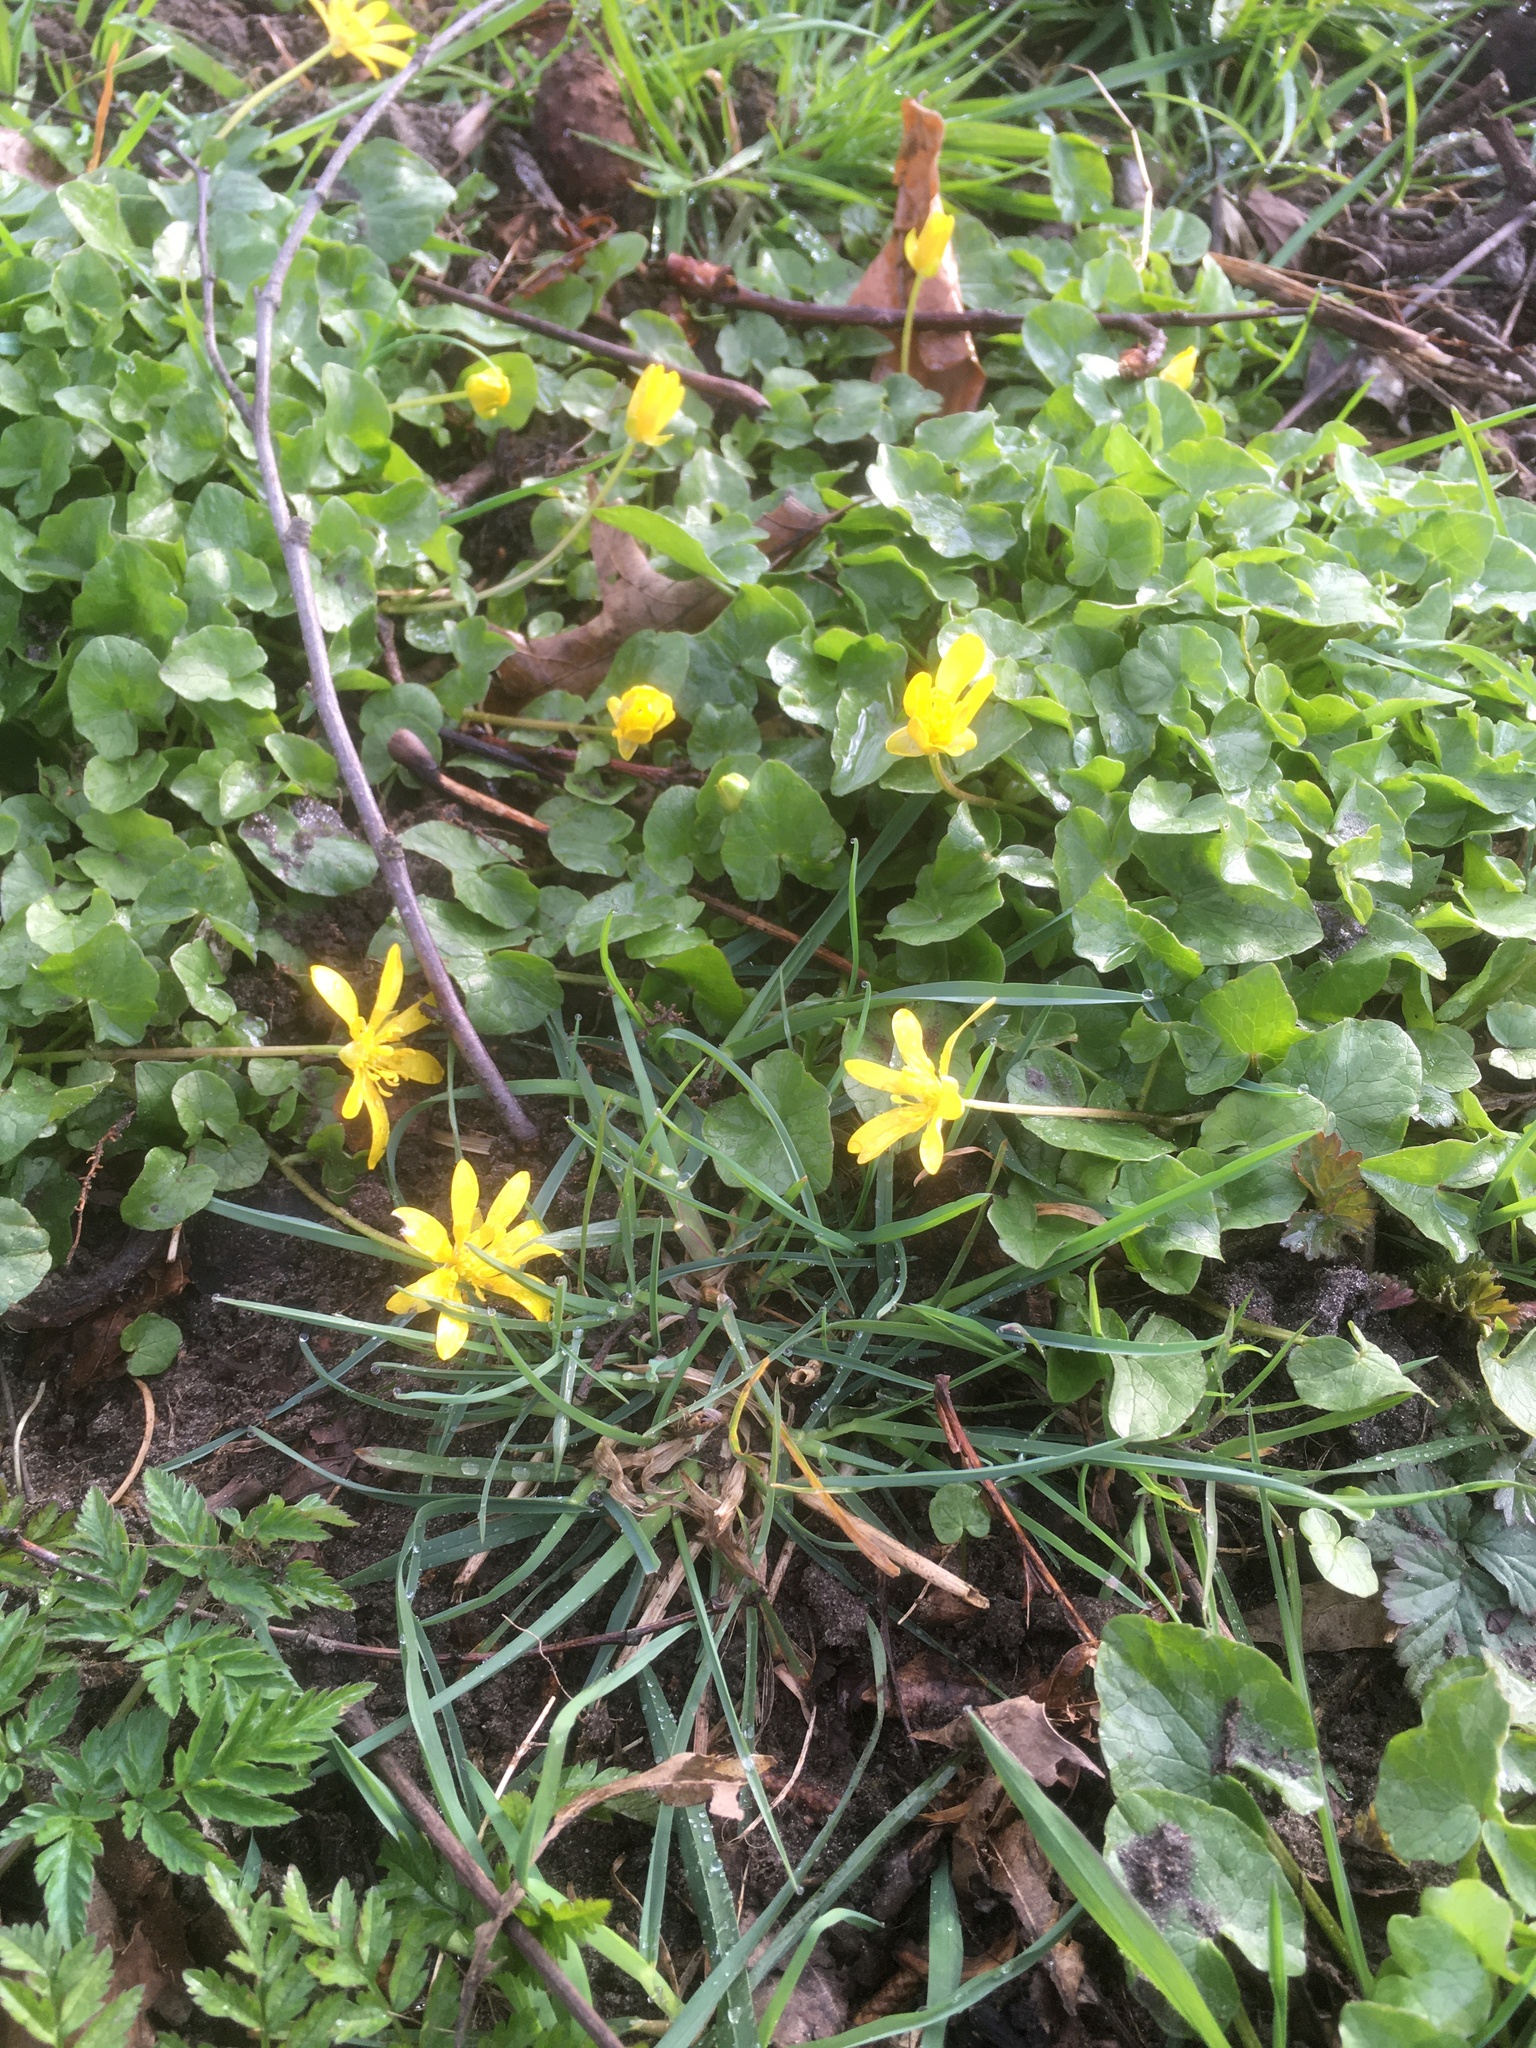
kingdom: Plantae
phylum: Tracheophyta
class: Magnoliopsida
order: Ranunculales
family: Ranunculaceae
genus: Ficaria
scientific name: Ficaria verna
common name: Lesser celandine
